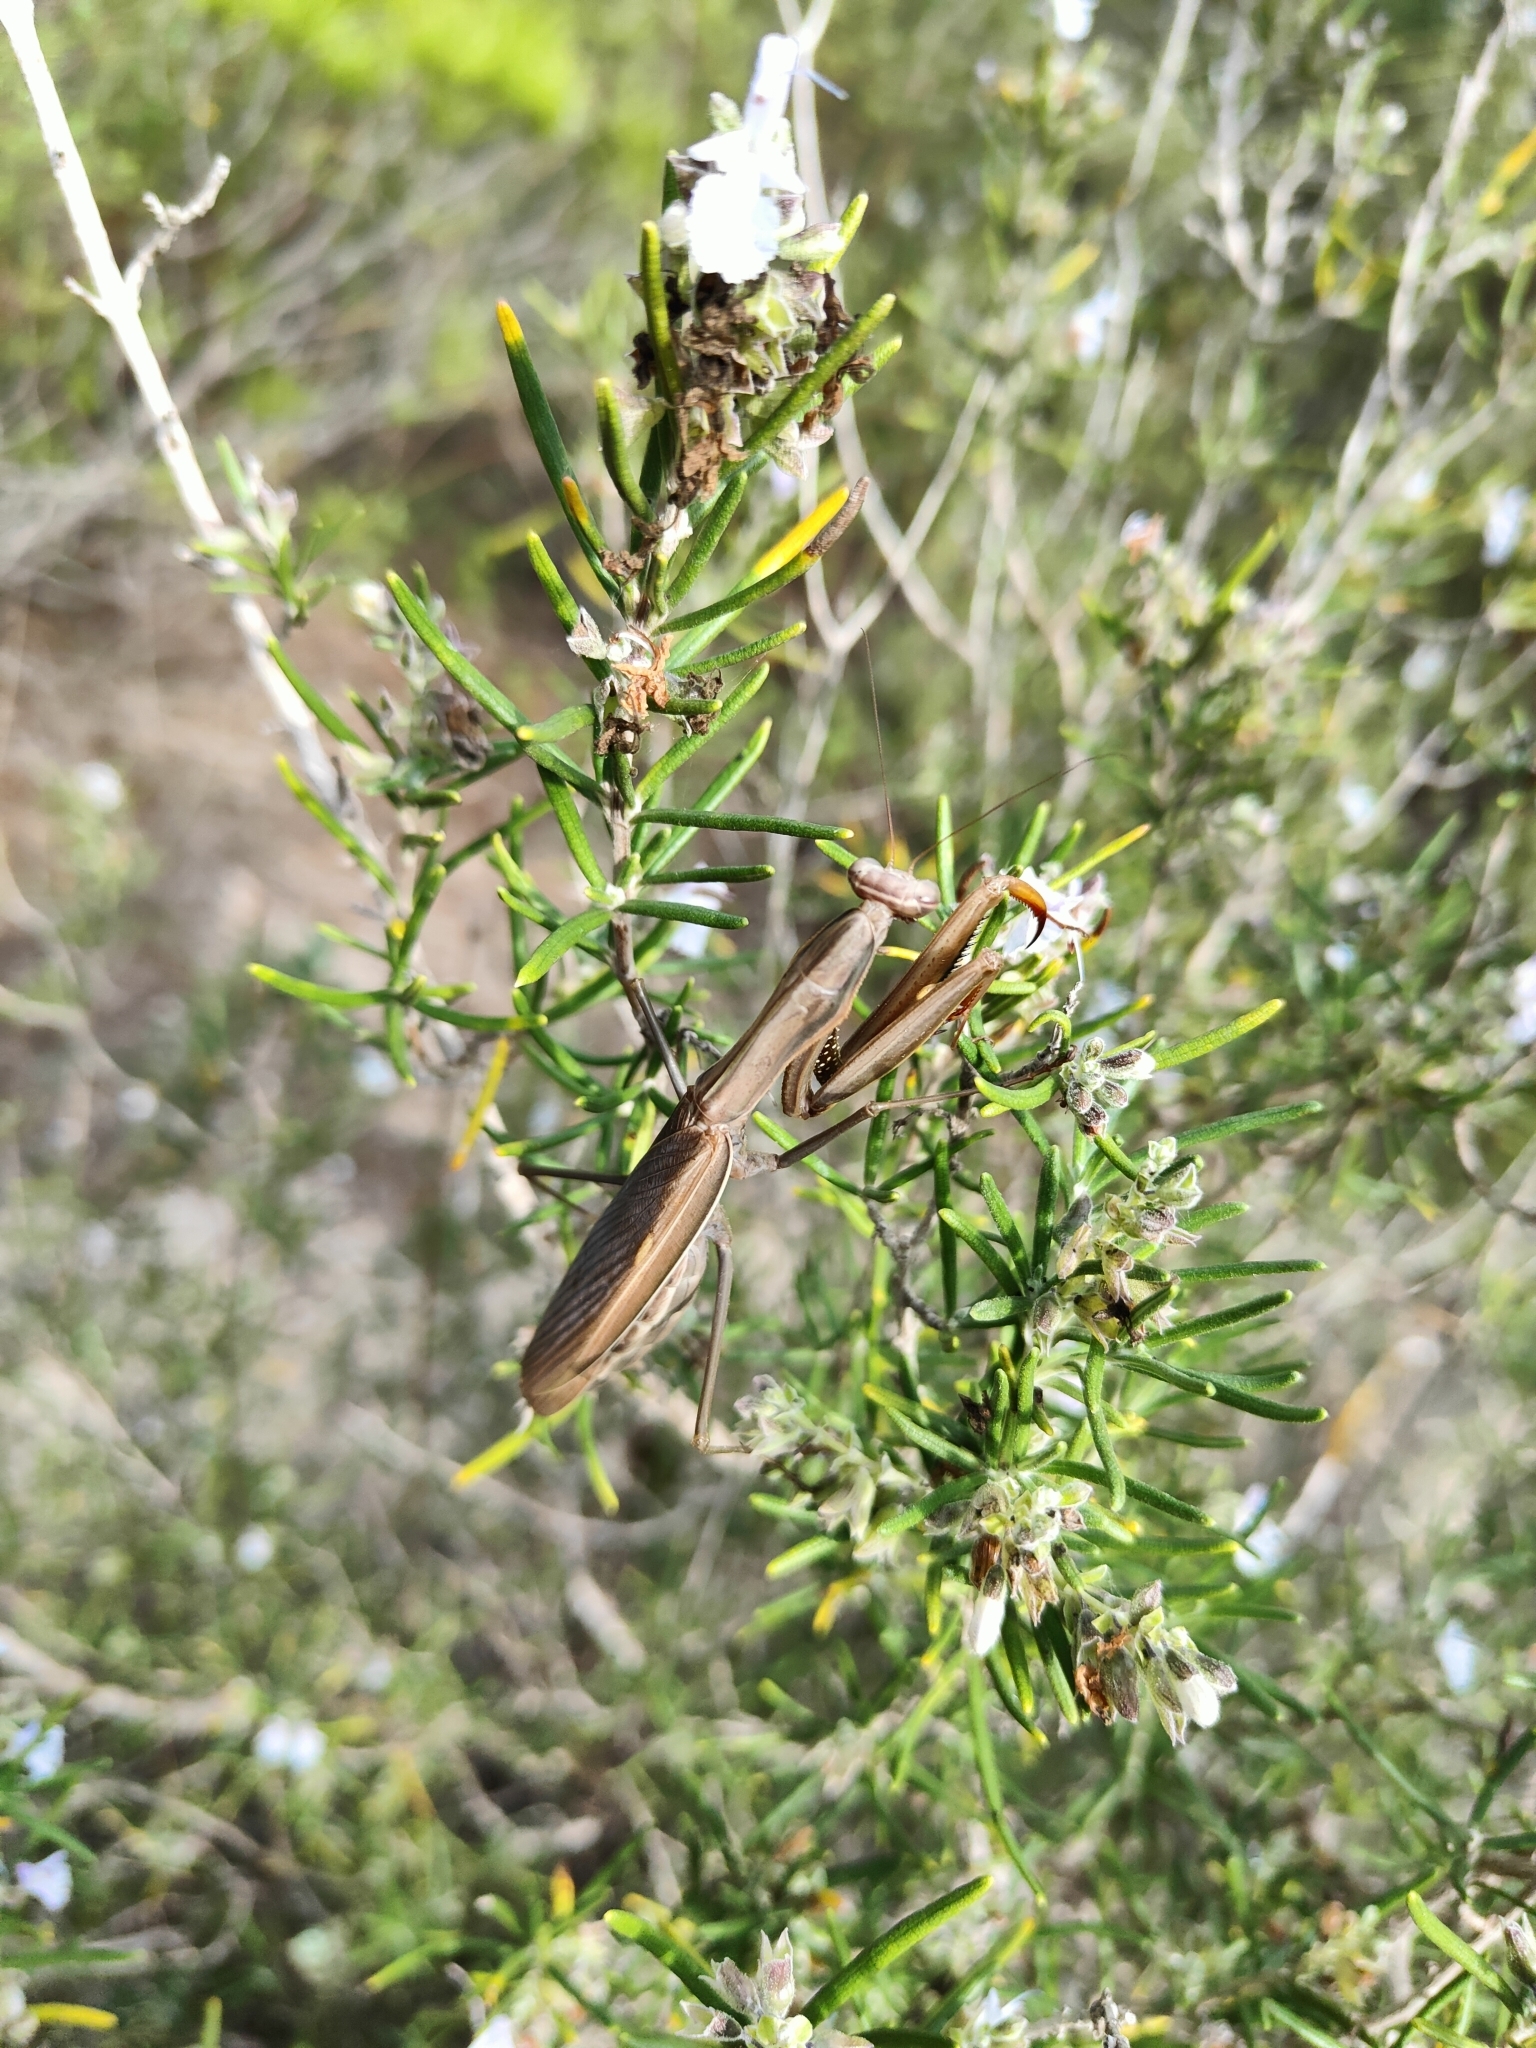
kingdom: Animalia
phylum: Arthropoda
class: Insecta
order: Mantodea
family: Mantidae
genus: Mantis
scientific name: Mantis religiosa
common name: Praying mantis
